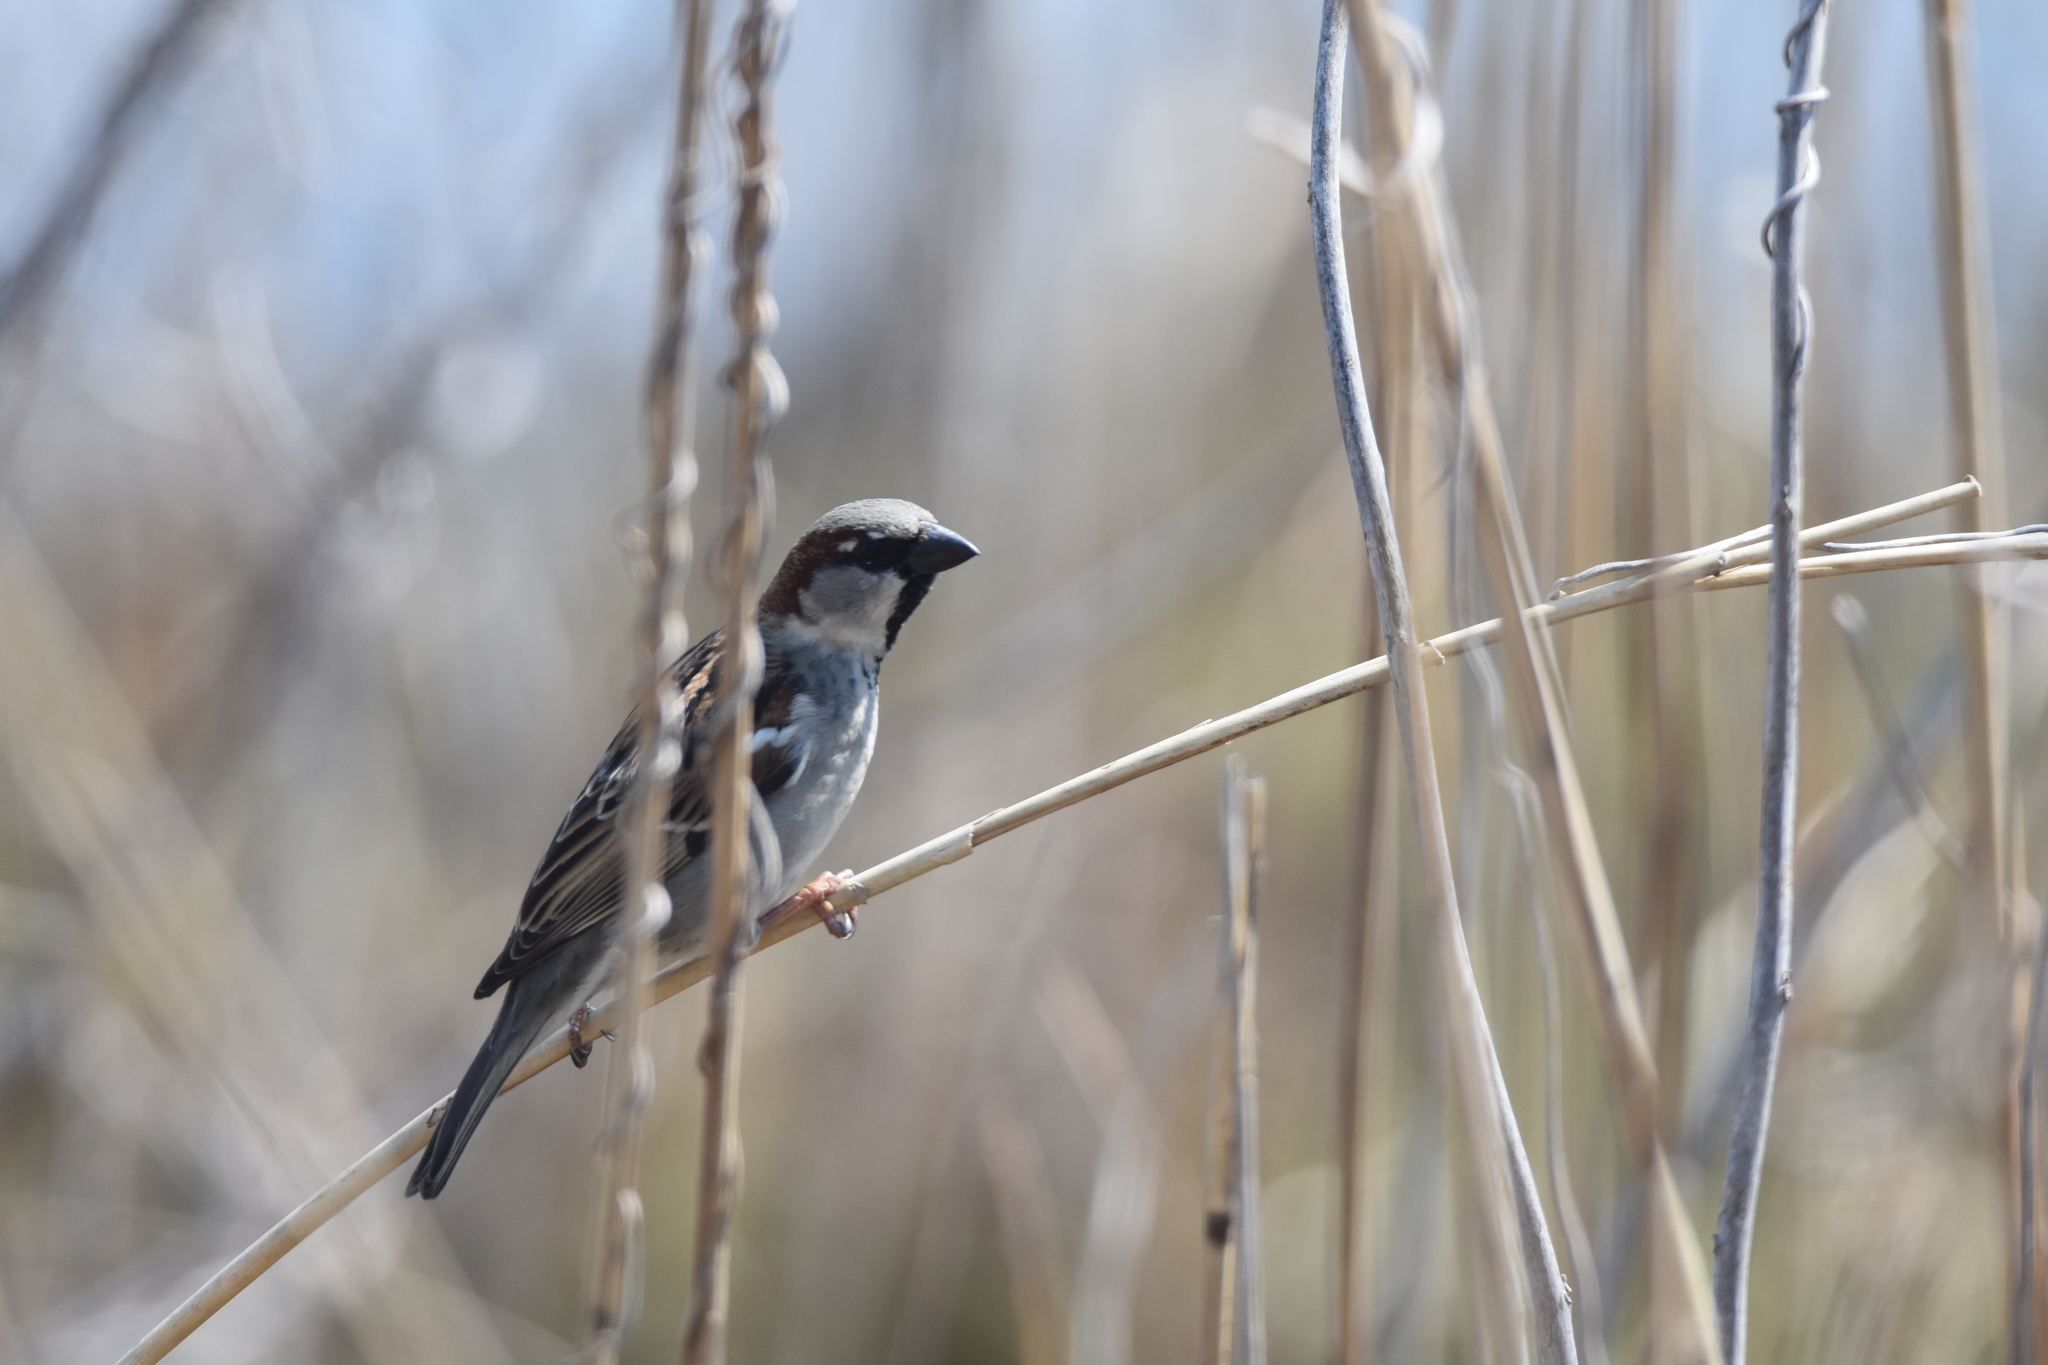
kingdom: Animalia
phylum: Chordata
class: Aves
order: Passeriformes
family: Passeridae
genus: Passer
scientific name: Passer domesticus
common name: House sparrow
